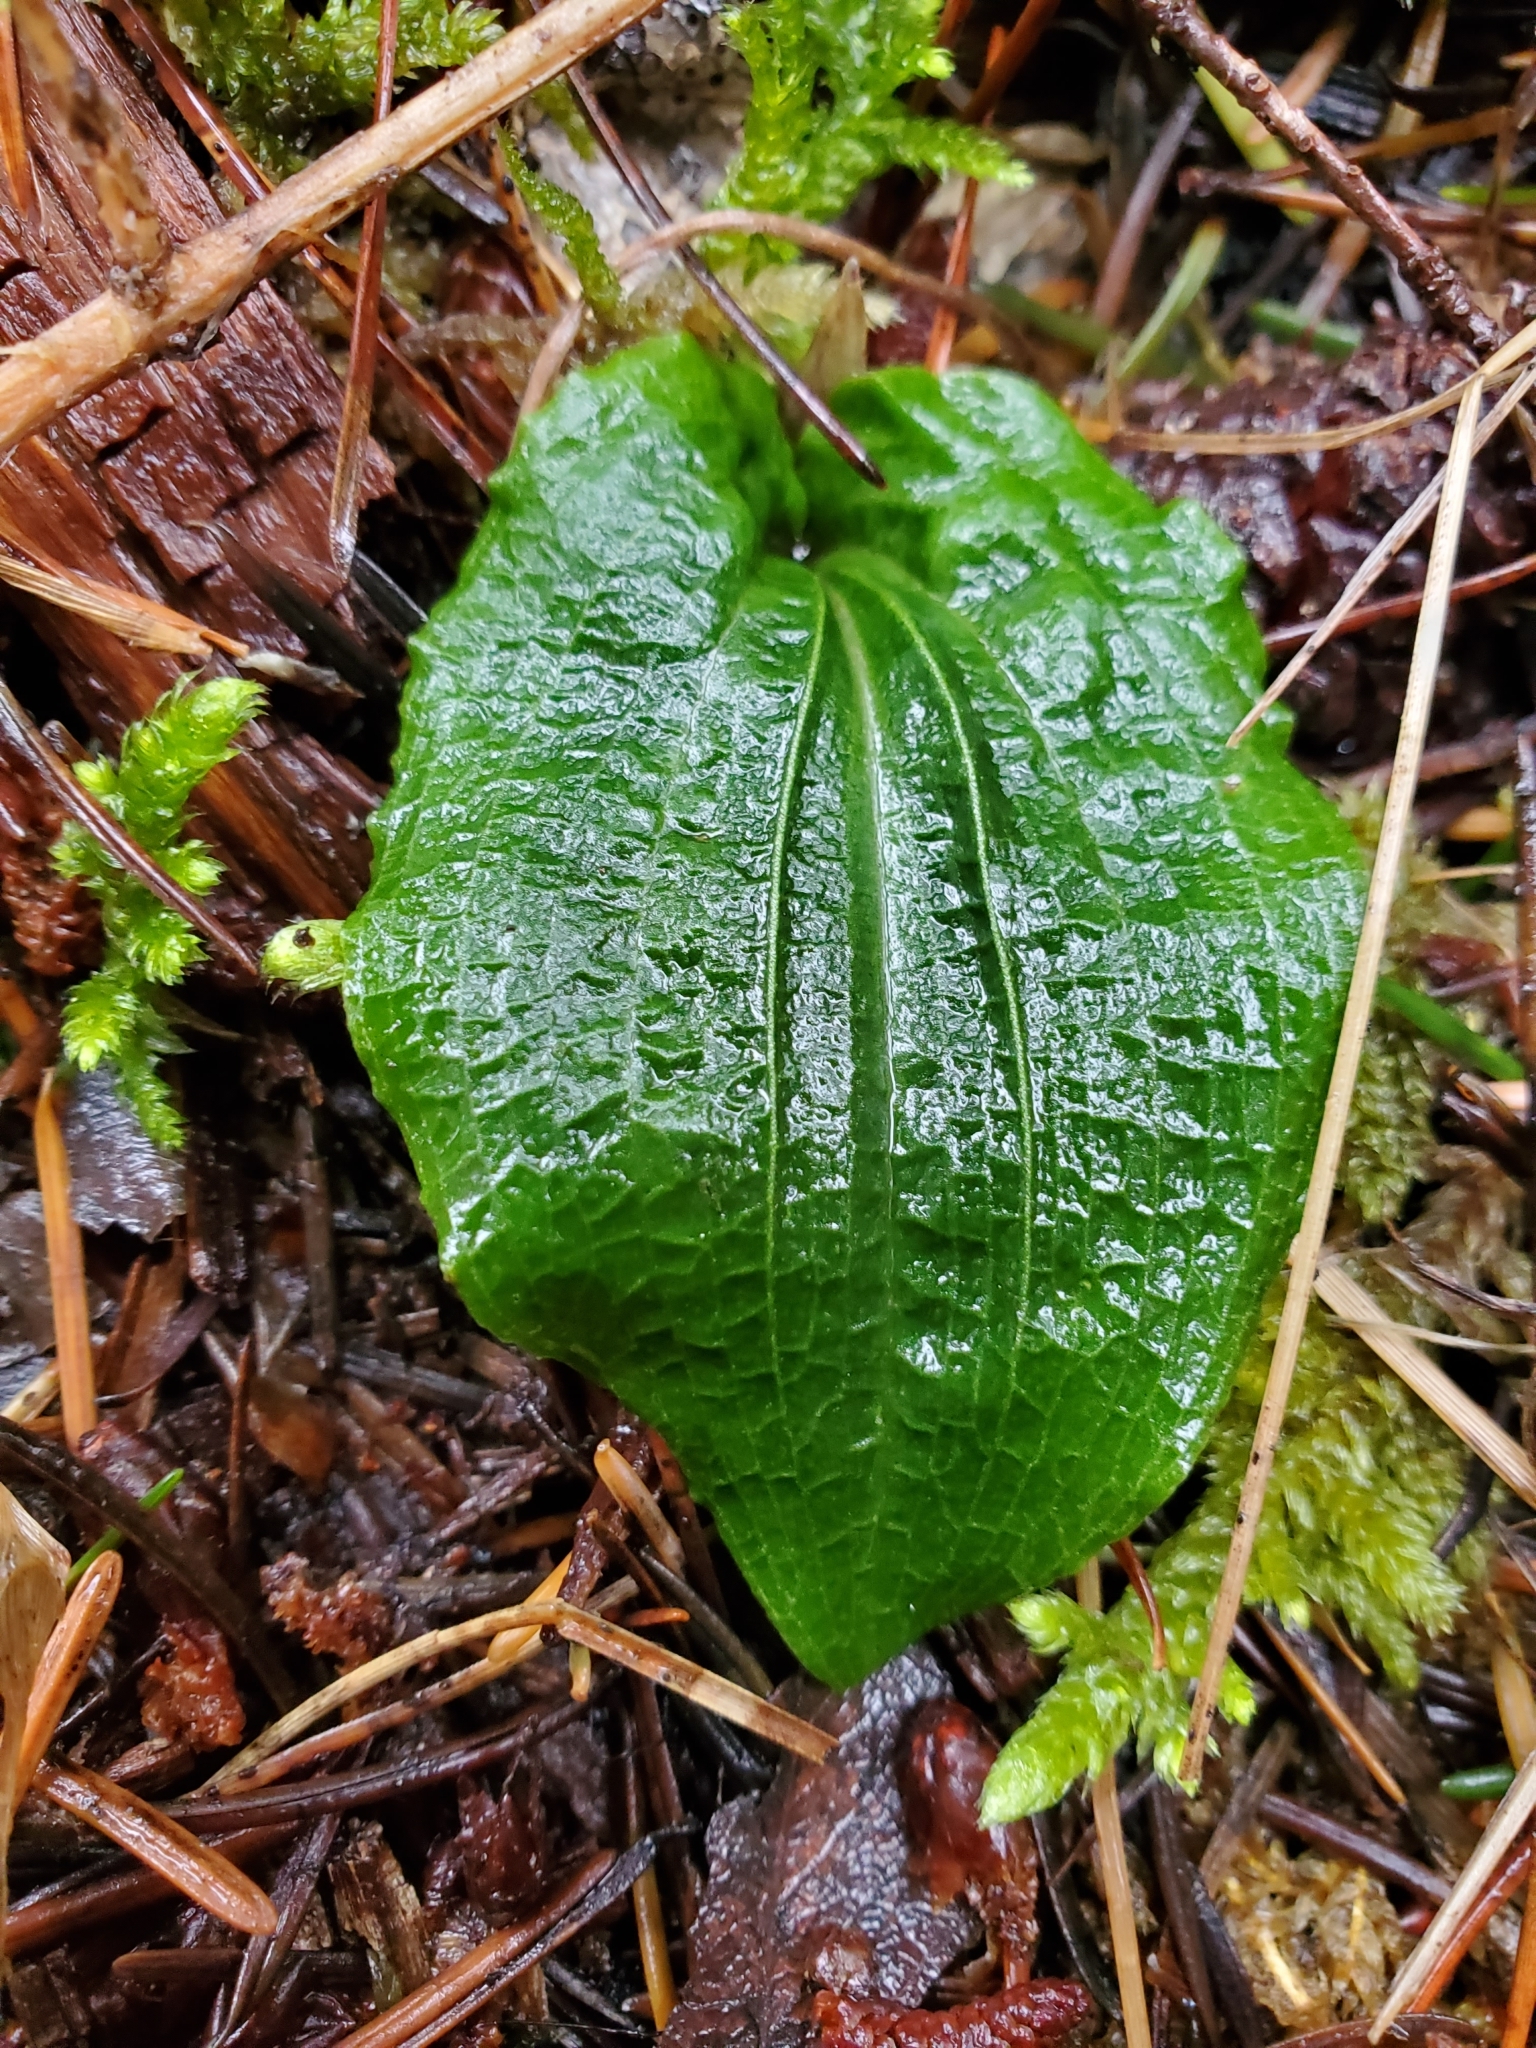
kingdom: Plantae
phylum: Tracheophyta
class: Liliopsida
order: Asparagales
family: Orchidaceae
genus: Calypso
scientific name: Calypso bulbosa
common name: Calypso
